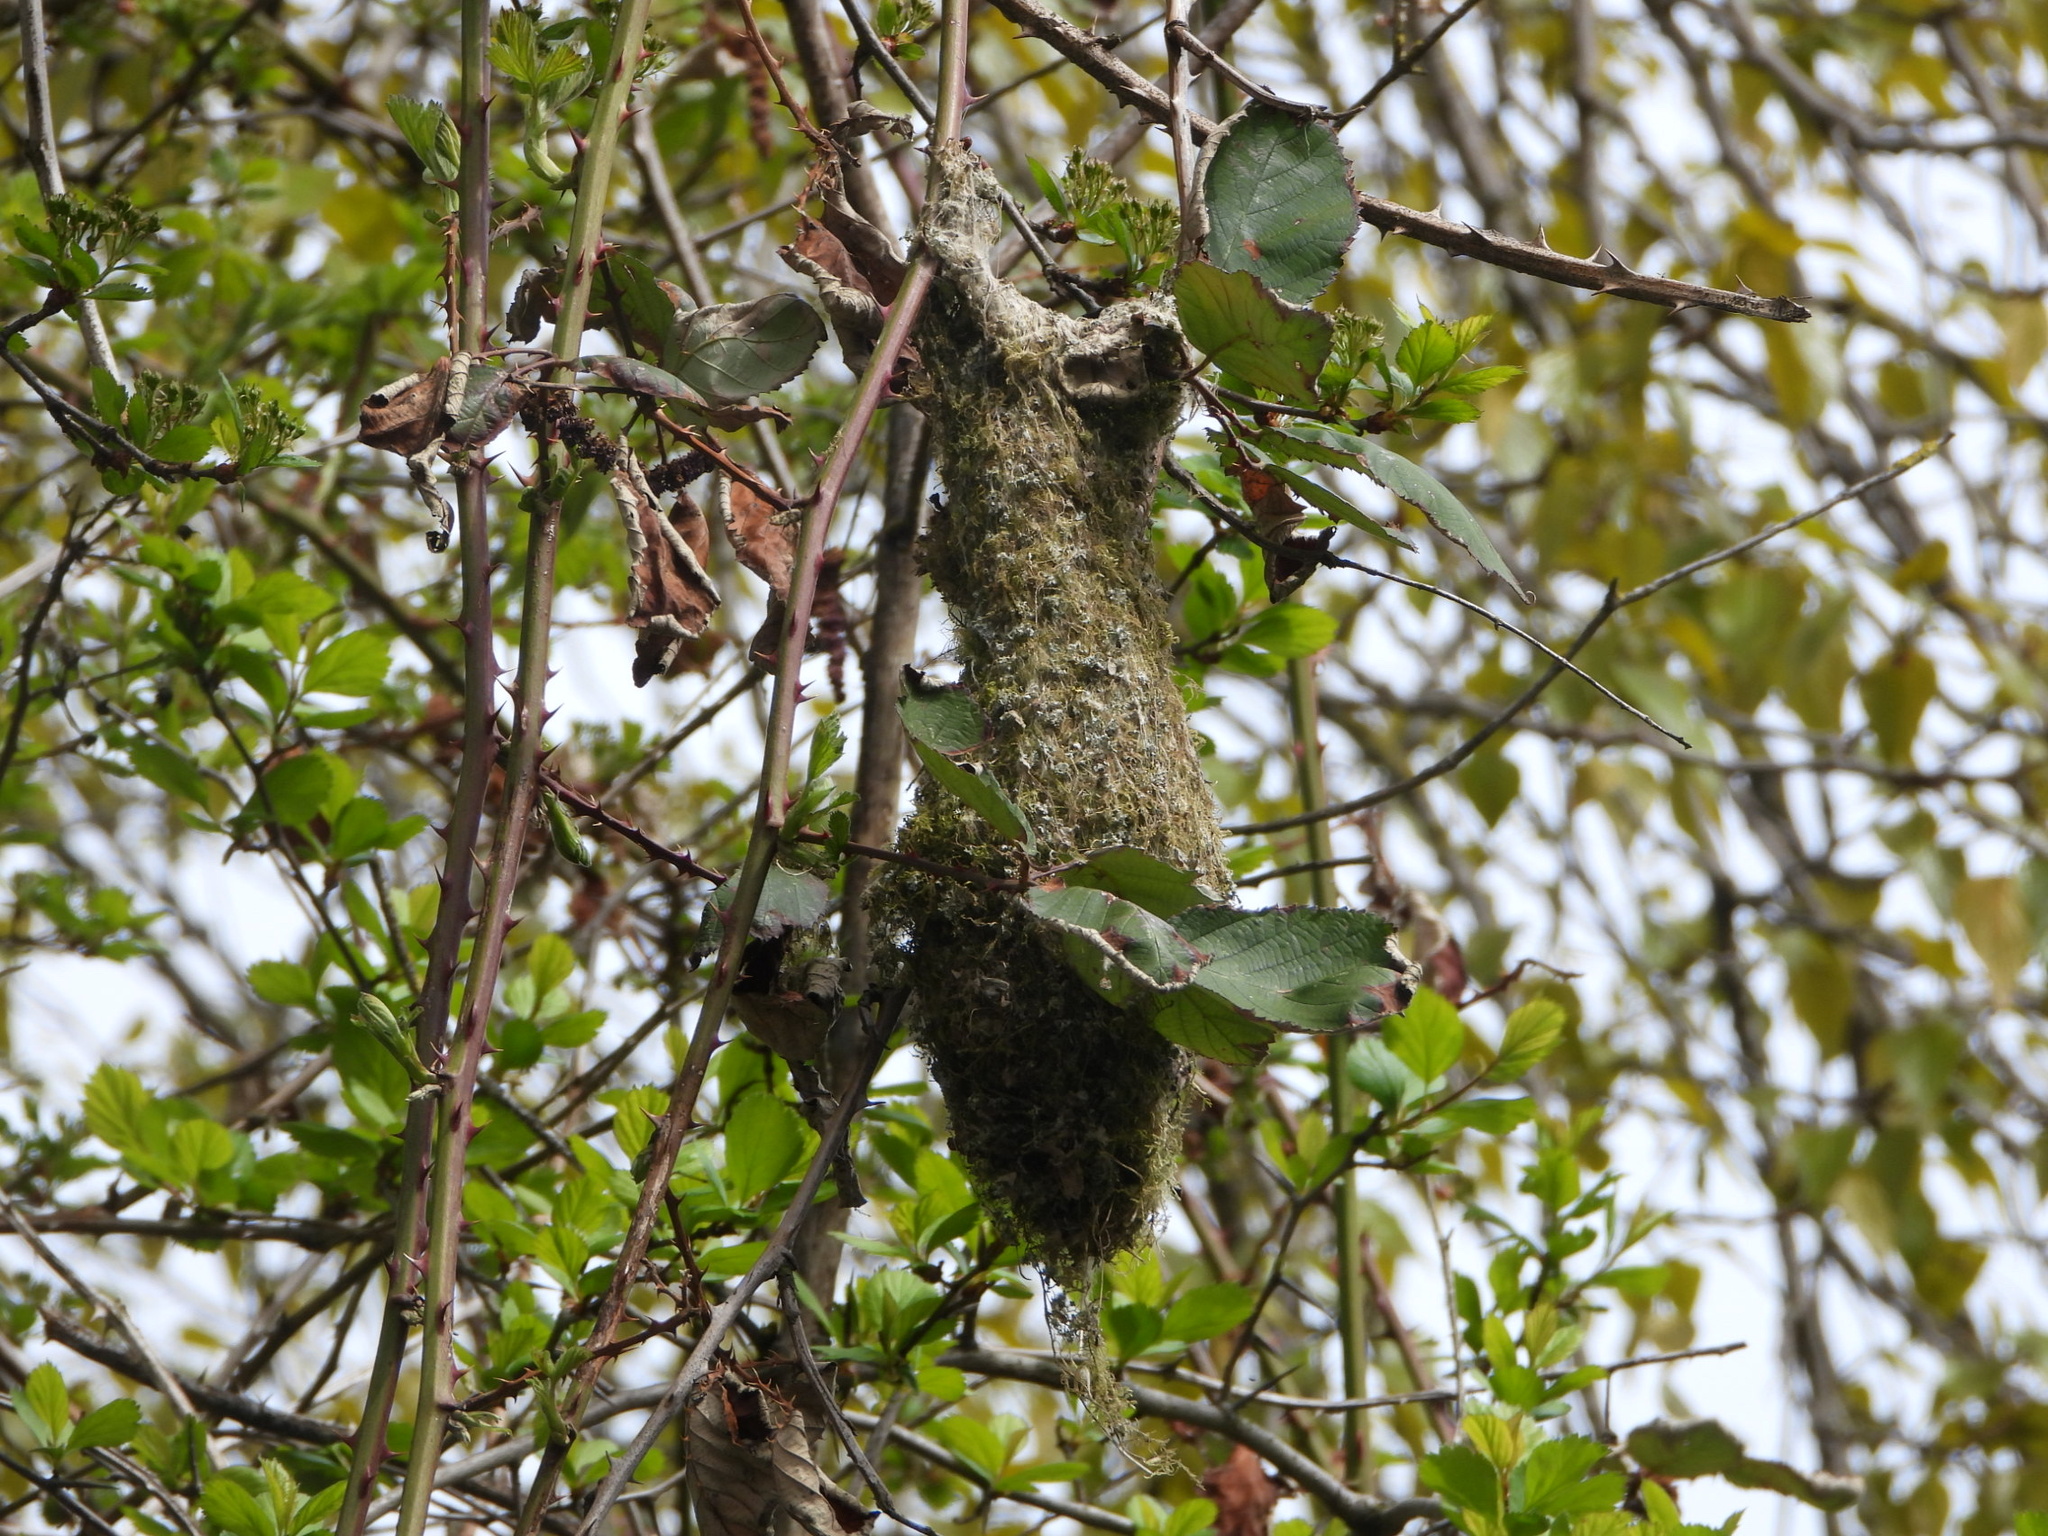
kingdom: Animalia
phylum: Chordata
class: Aves
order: Passeriformes
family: Aegithalidae
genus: Psaltriparus
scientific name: Psaltriparus minimus
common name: American bushtit
